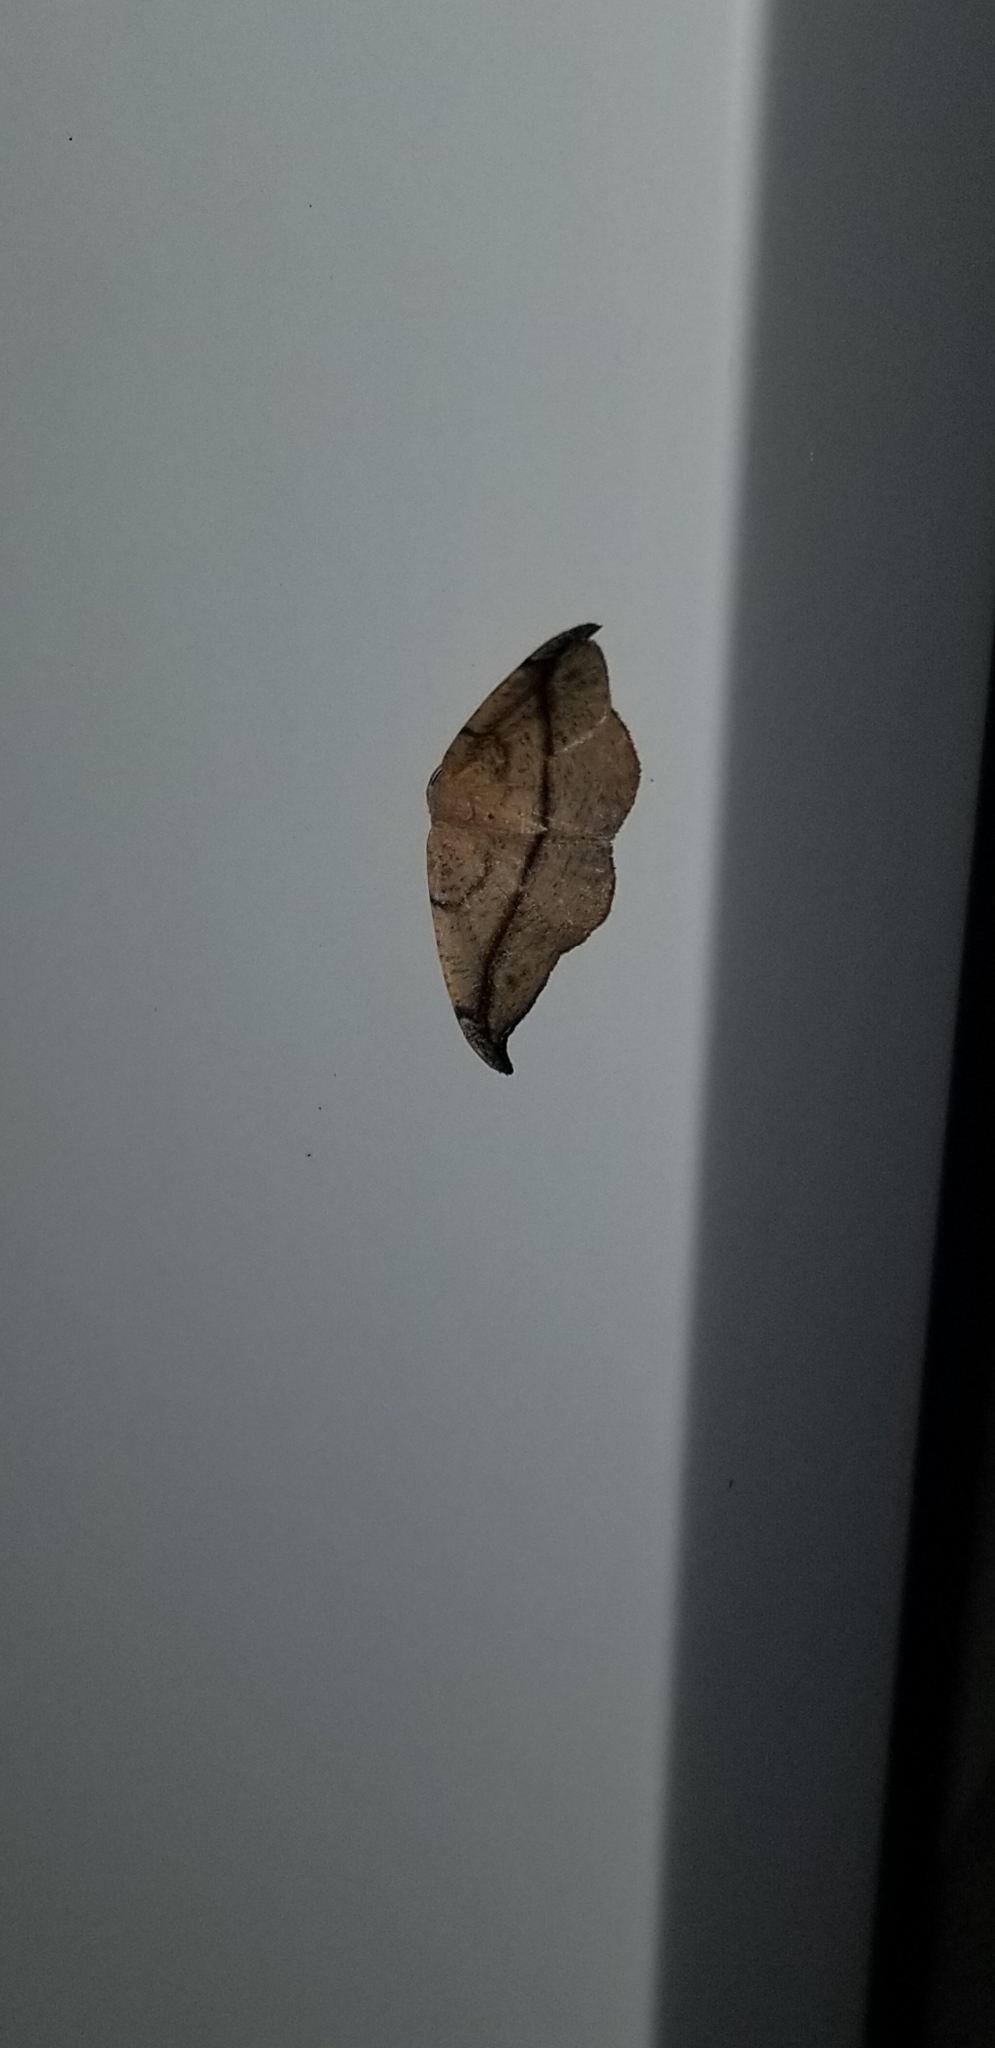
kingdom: Animalia
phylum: Arthropoda
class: Insecta
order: Lepidoptera
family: Geometridae
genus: Patalene
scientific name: Patalene olyzonaria
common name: Juniper geometer moth
